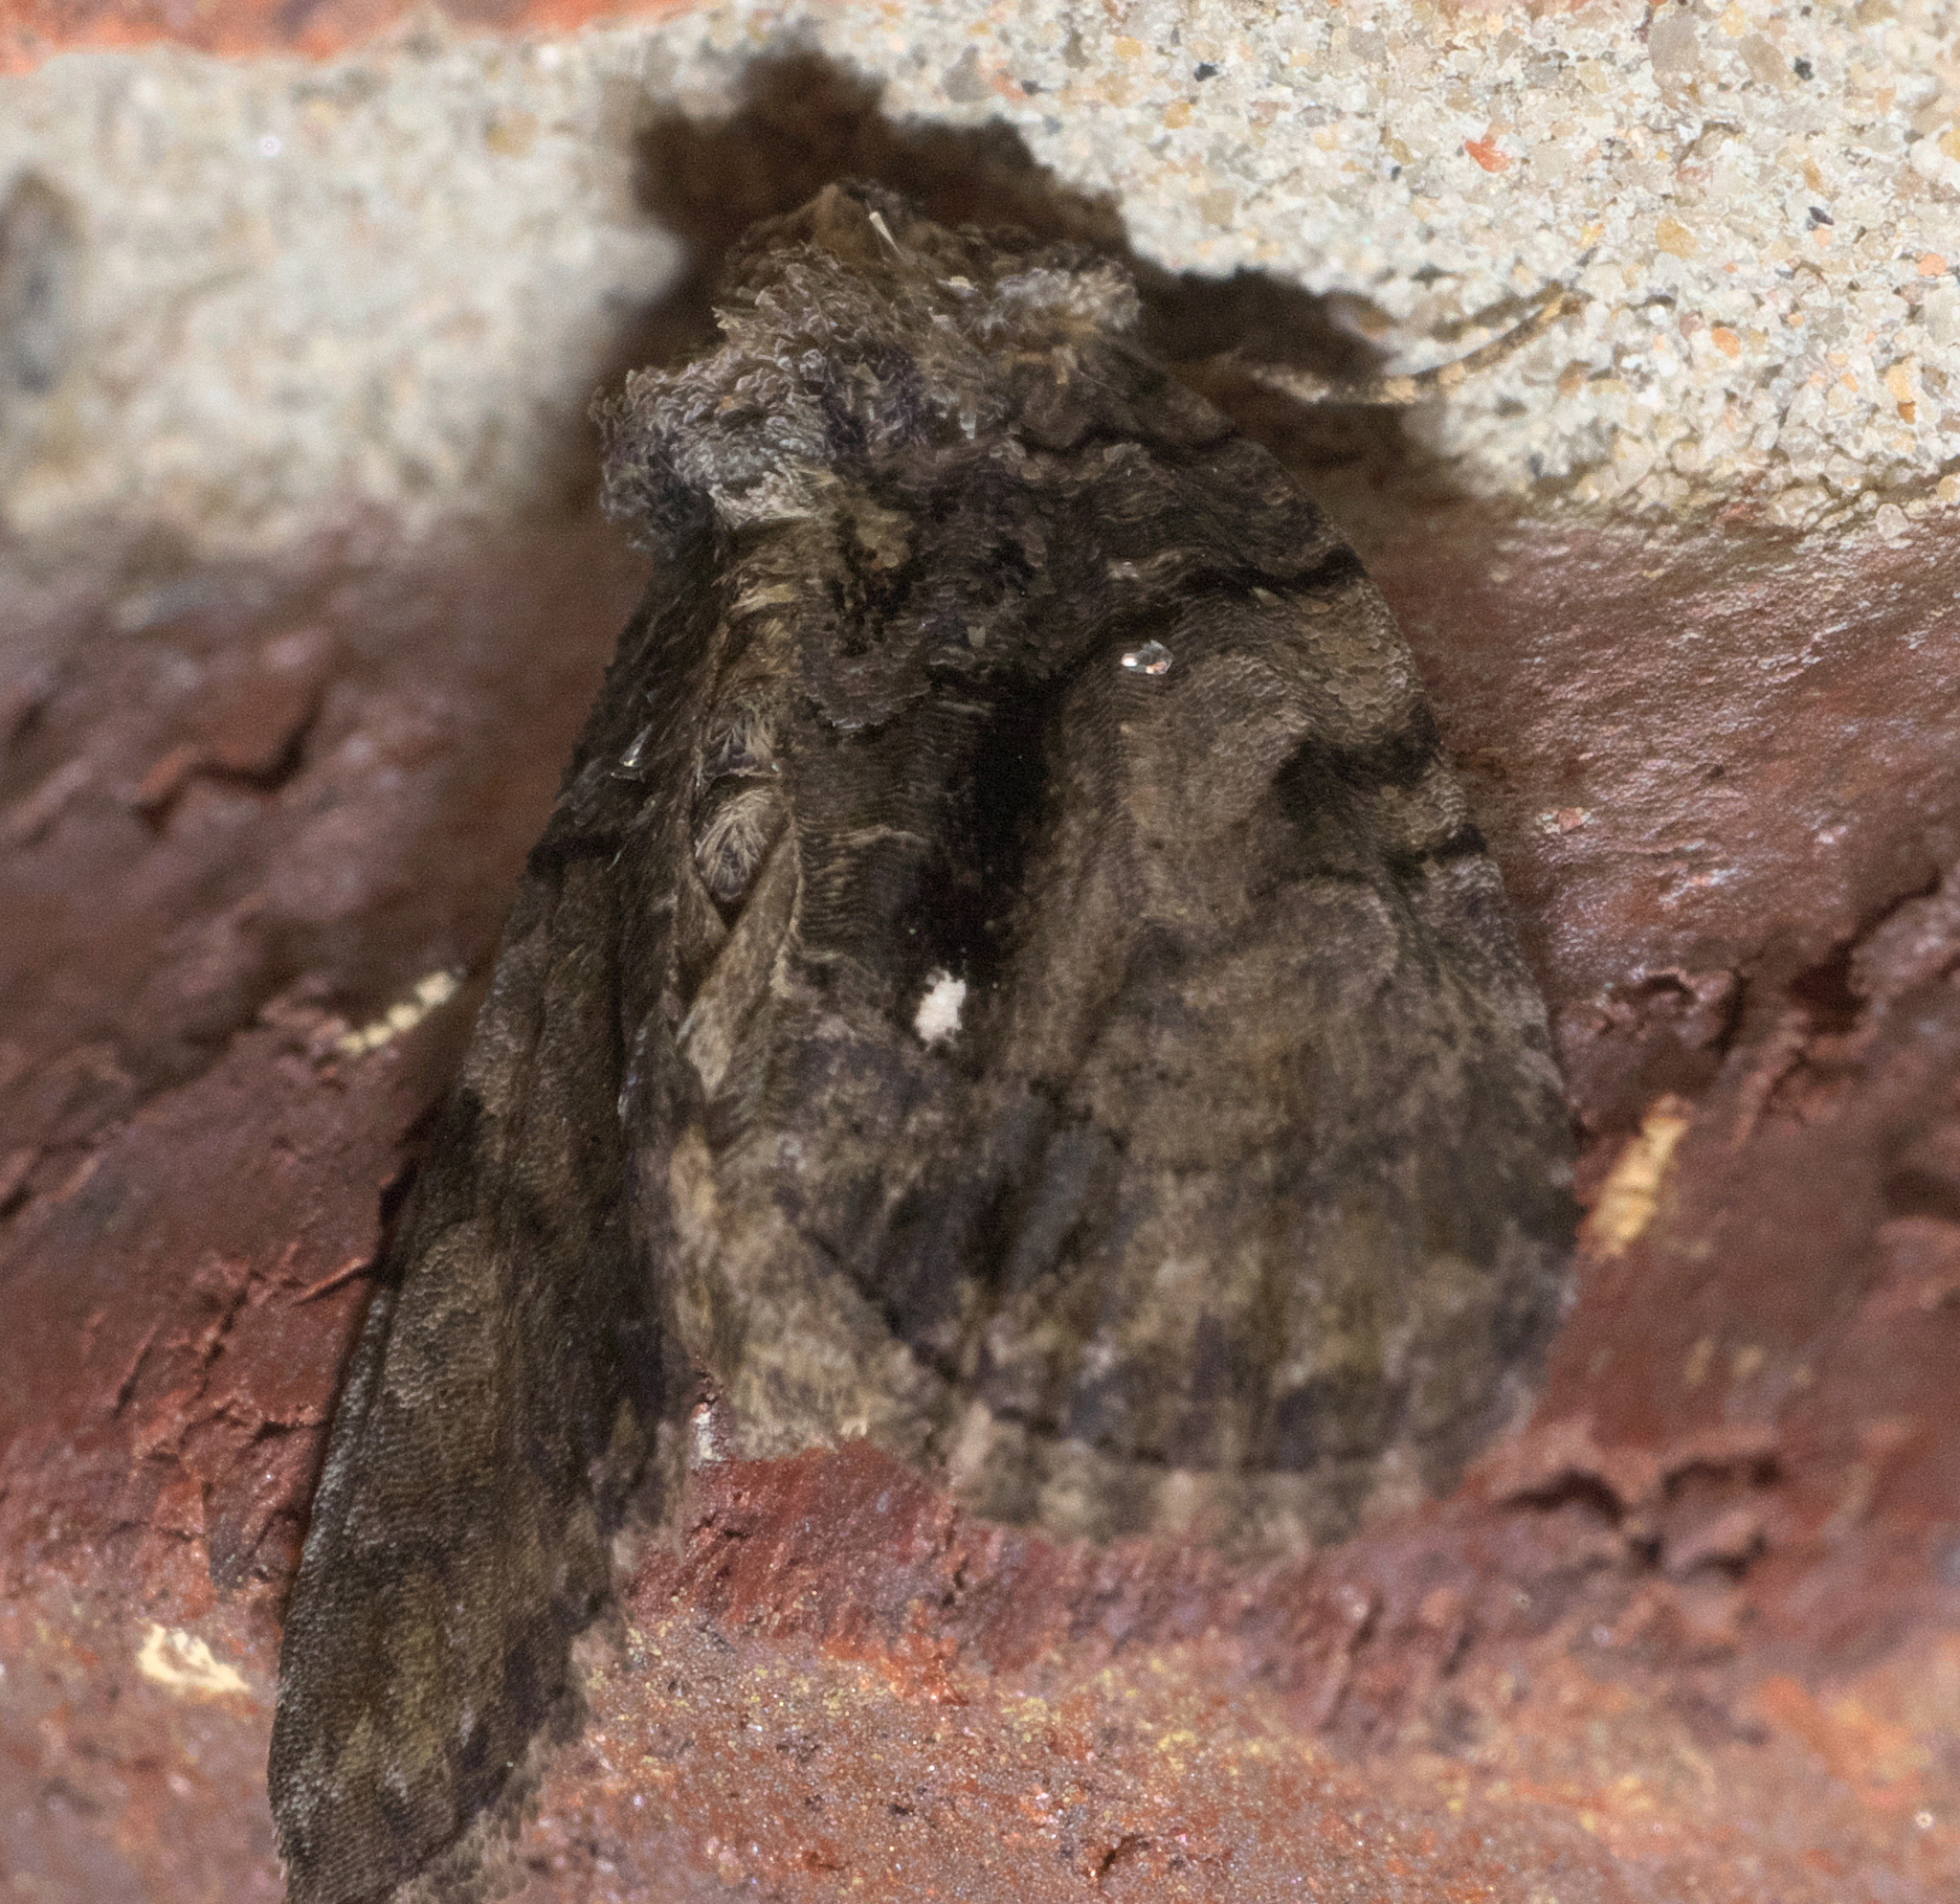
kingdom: Animalia
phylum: Arthropoda
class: Insecta
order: Lepidoptera
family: Noctuidae
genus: Chytonix
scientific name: Chytonix palliatricula
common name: Cloaked marvel
